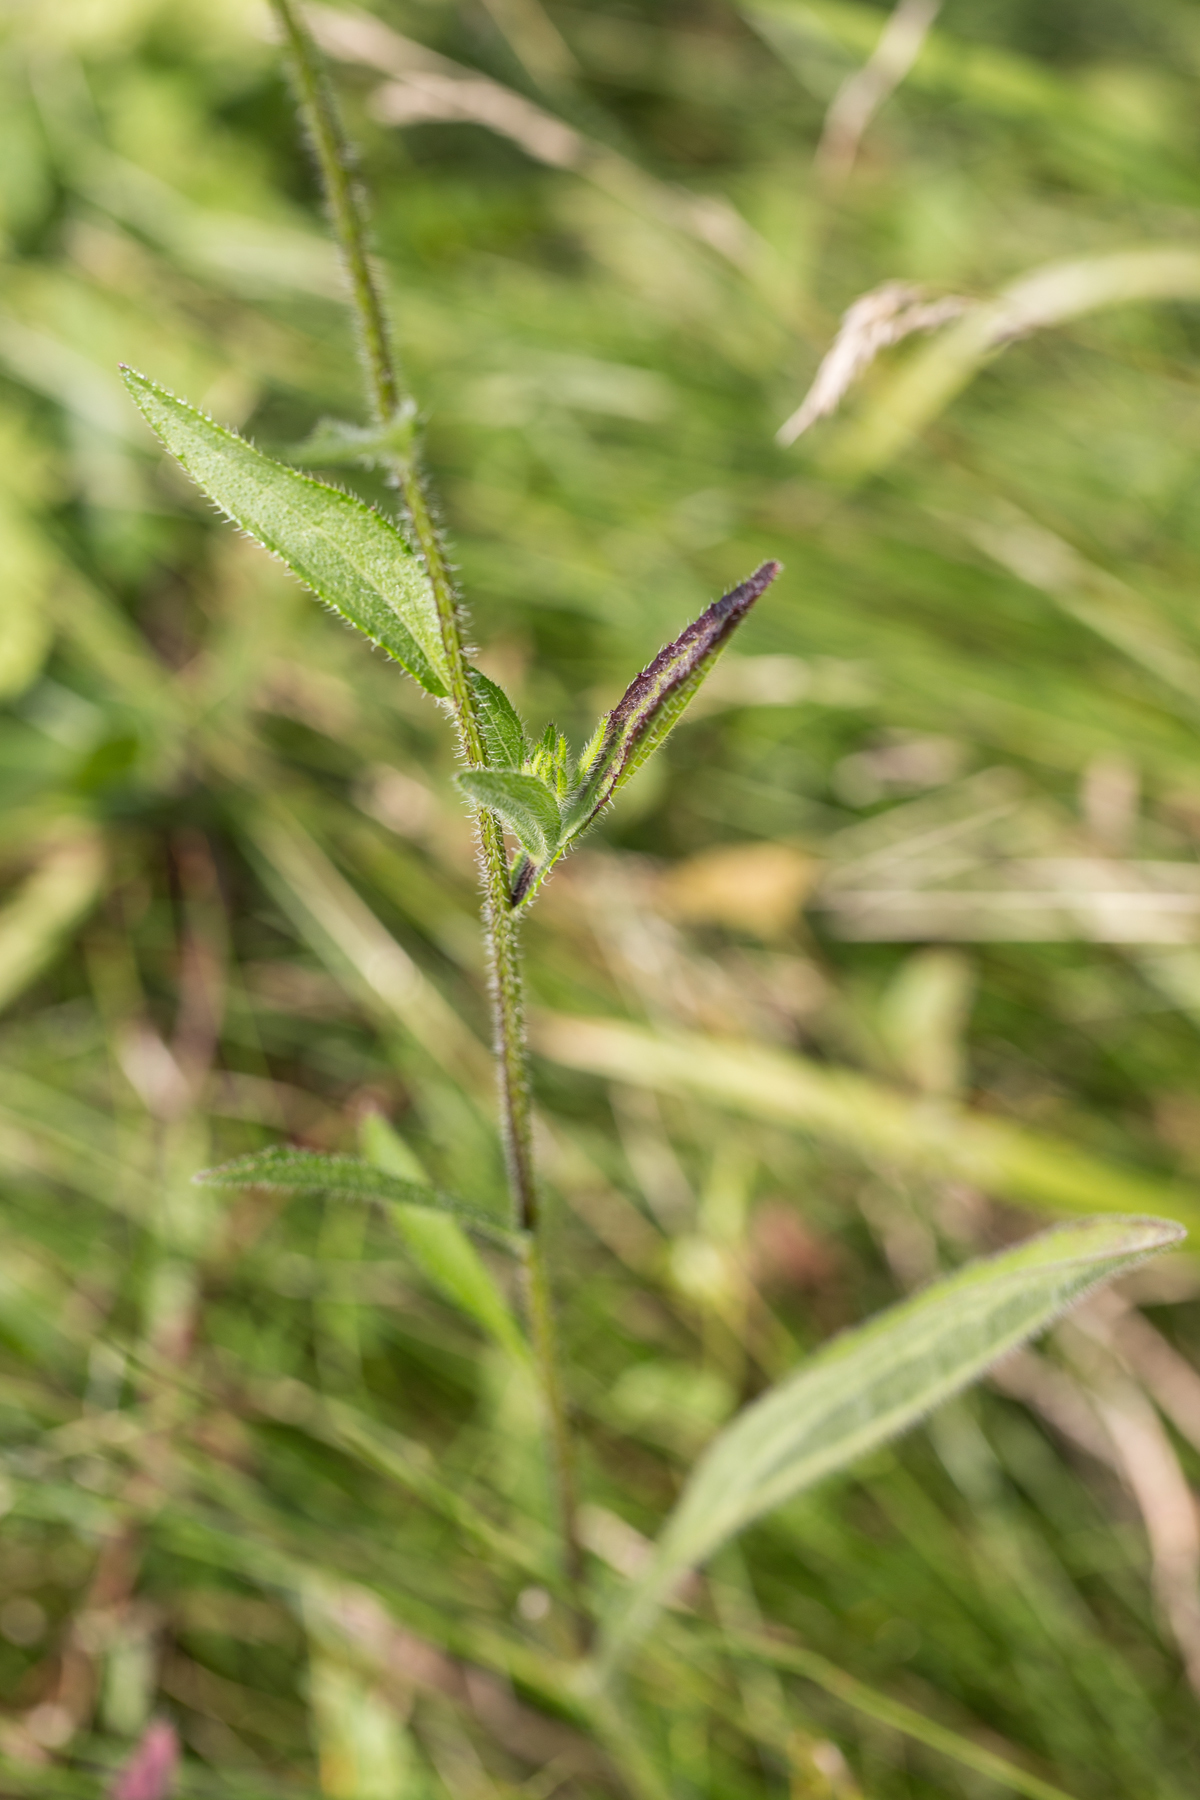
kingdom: Plantae
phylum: Tracheophyta
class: Magnoliopsida
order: Asterales
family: Asteraceae
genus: Rudbeckia
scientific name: Rudbeckia hirta
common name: Black-eyed-susan
